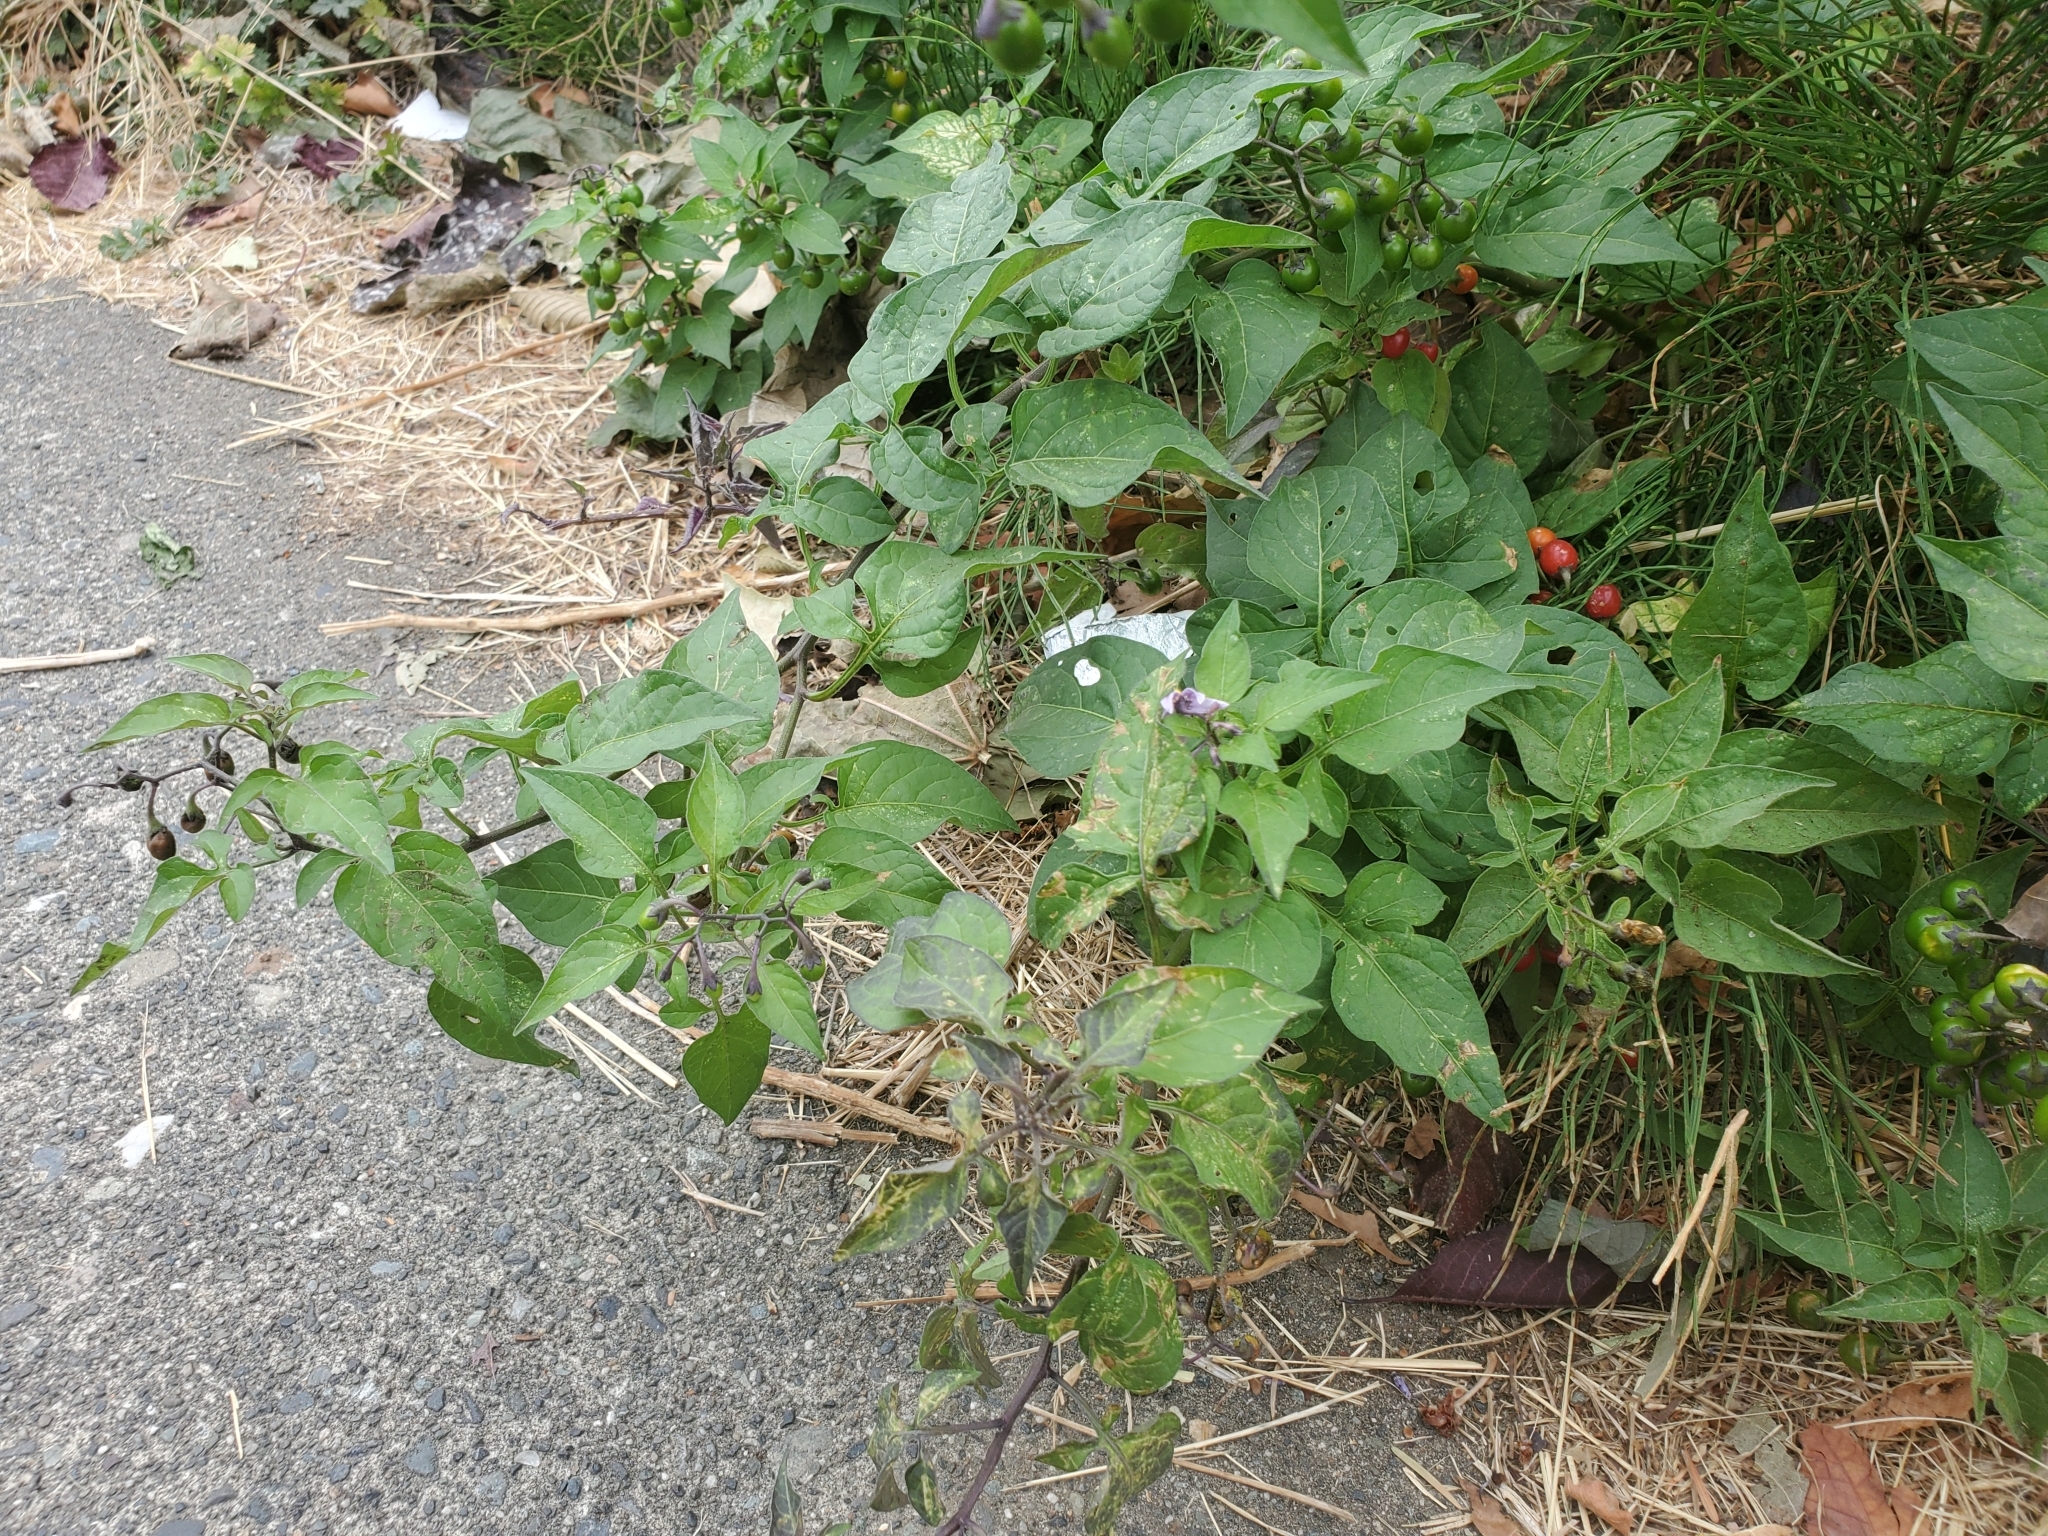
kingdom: Plantae
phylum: Tracheophyta
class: Magnoliopsida
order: Solanales
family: Solanaceae
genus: Solanum
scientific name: Solanum dulcamara
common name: Climbing nightshade
